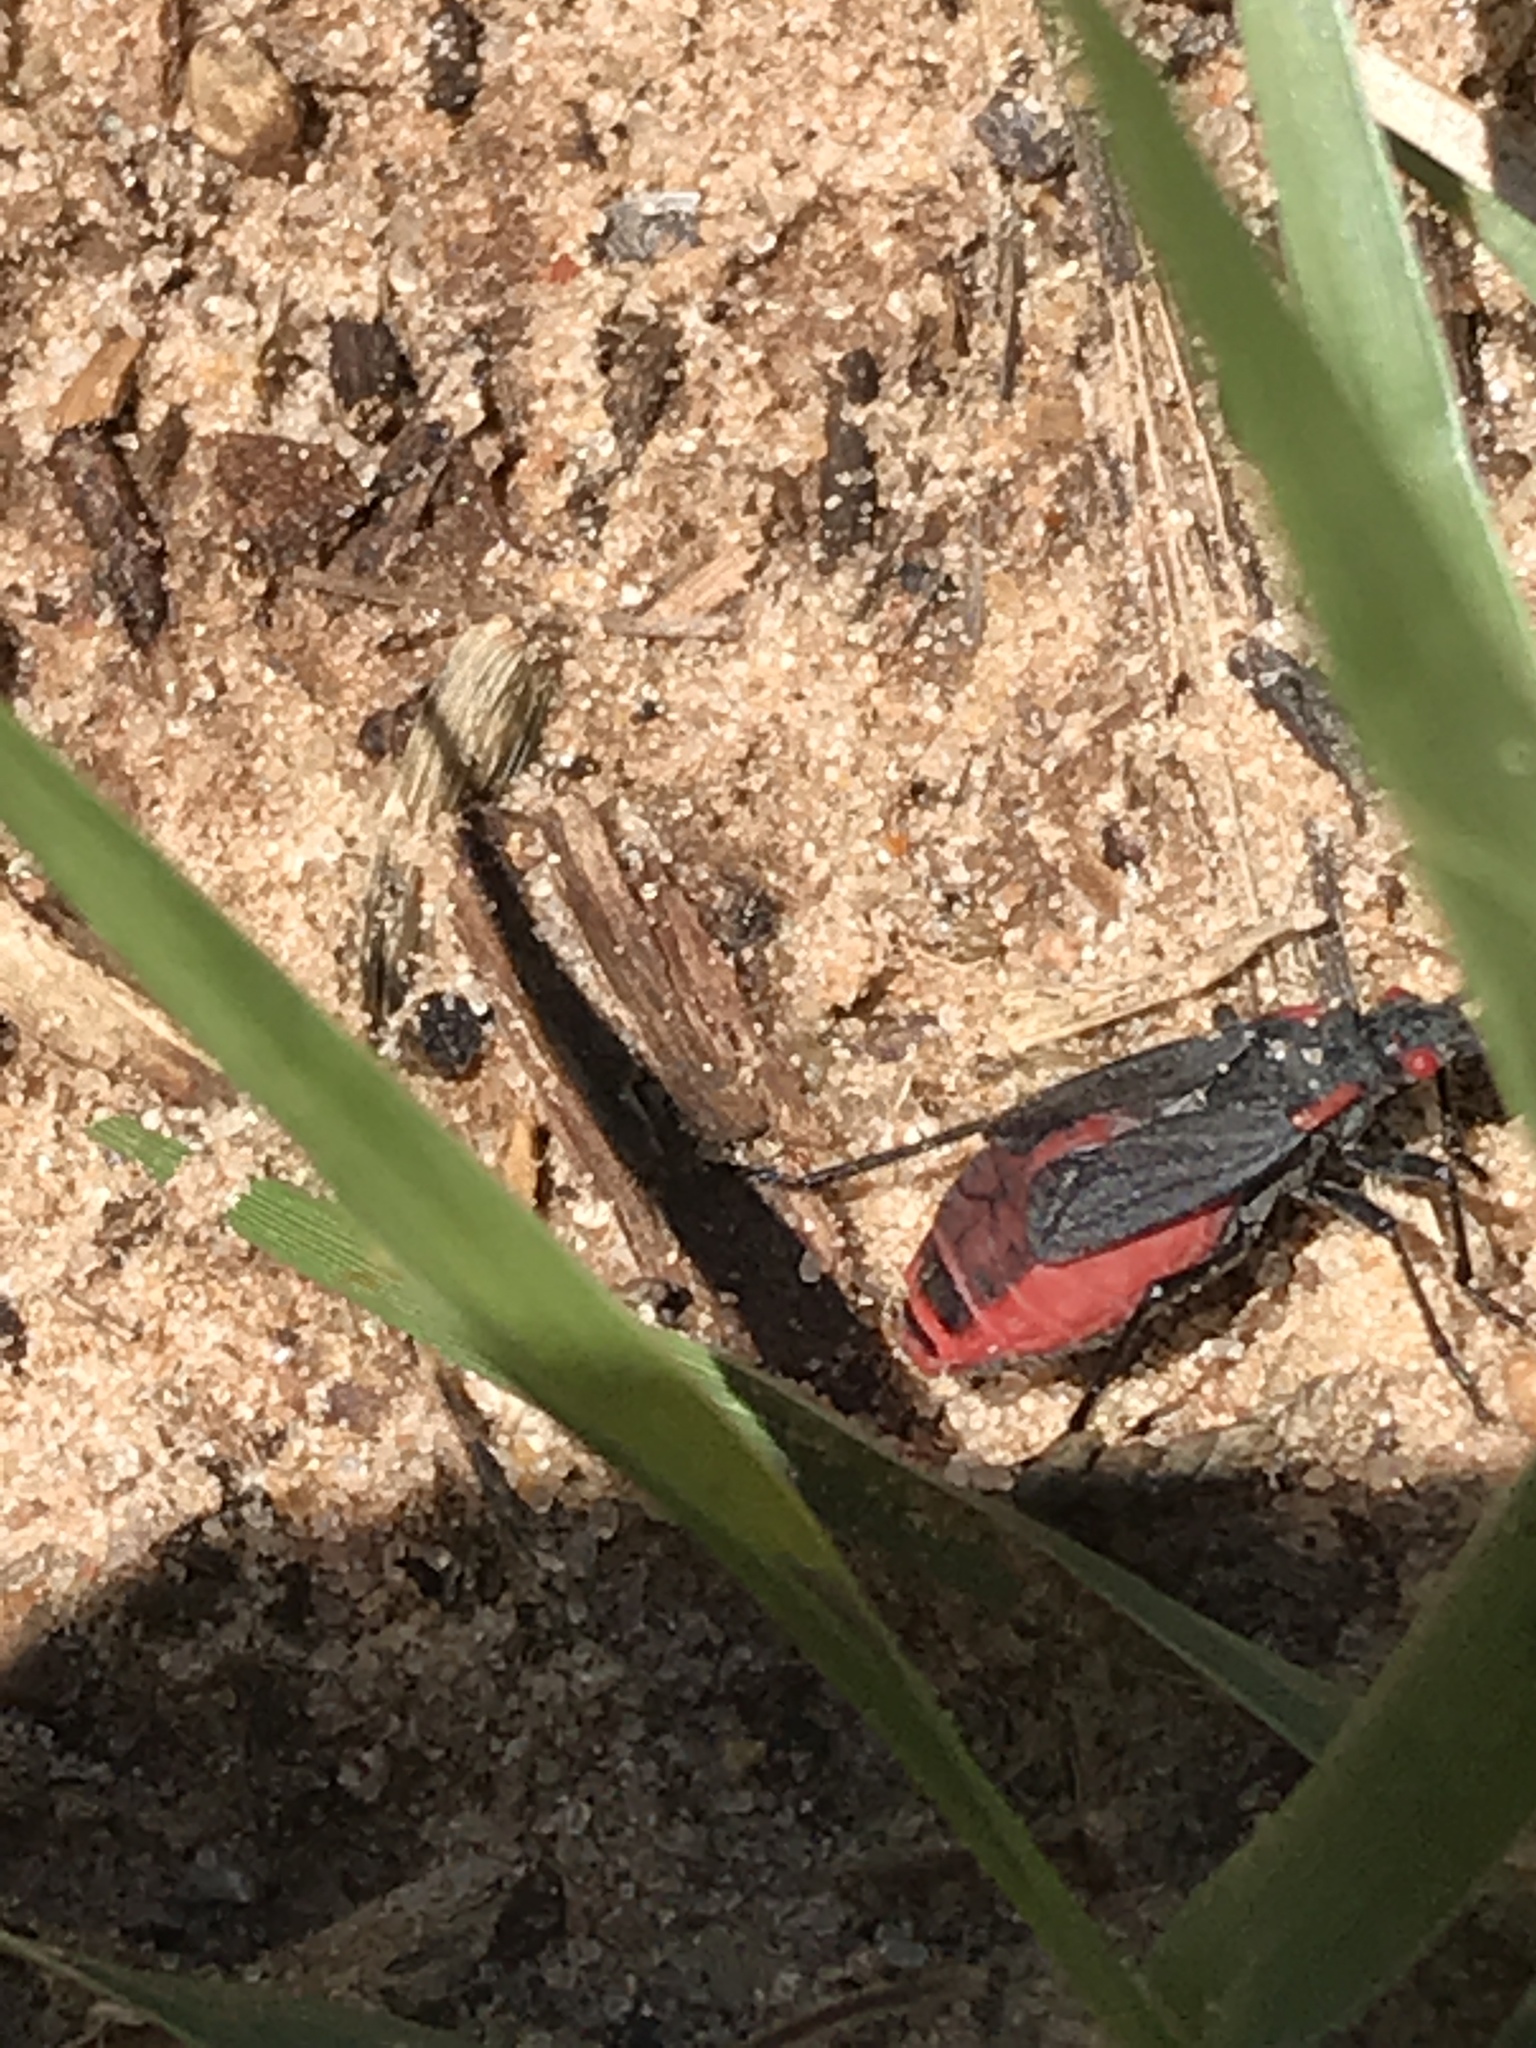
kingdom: Animalia
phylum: Arthropoda
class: Insecta
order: Hemiptera
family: Rhopalidae
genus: Jadera
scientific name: Jadera haematoloma
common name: Red-shouldered bug
